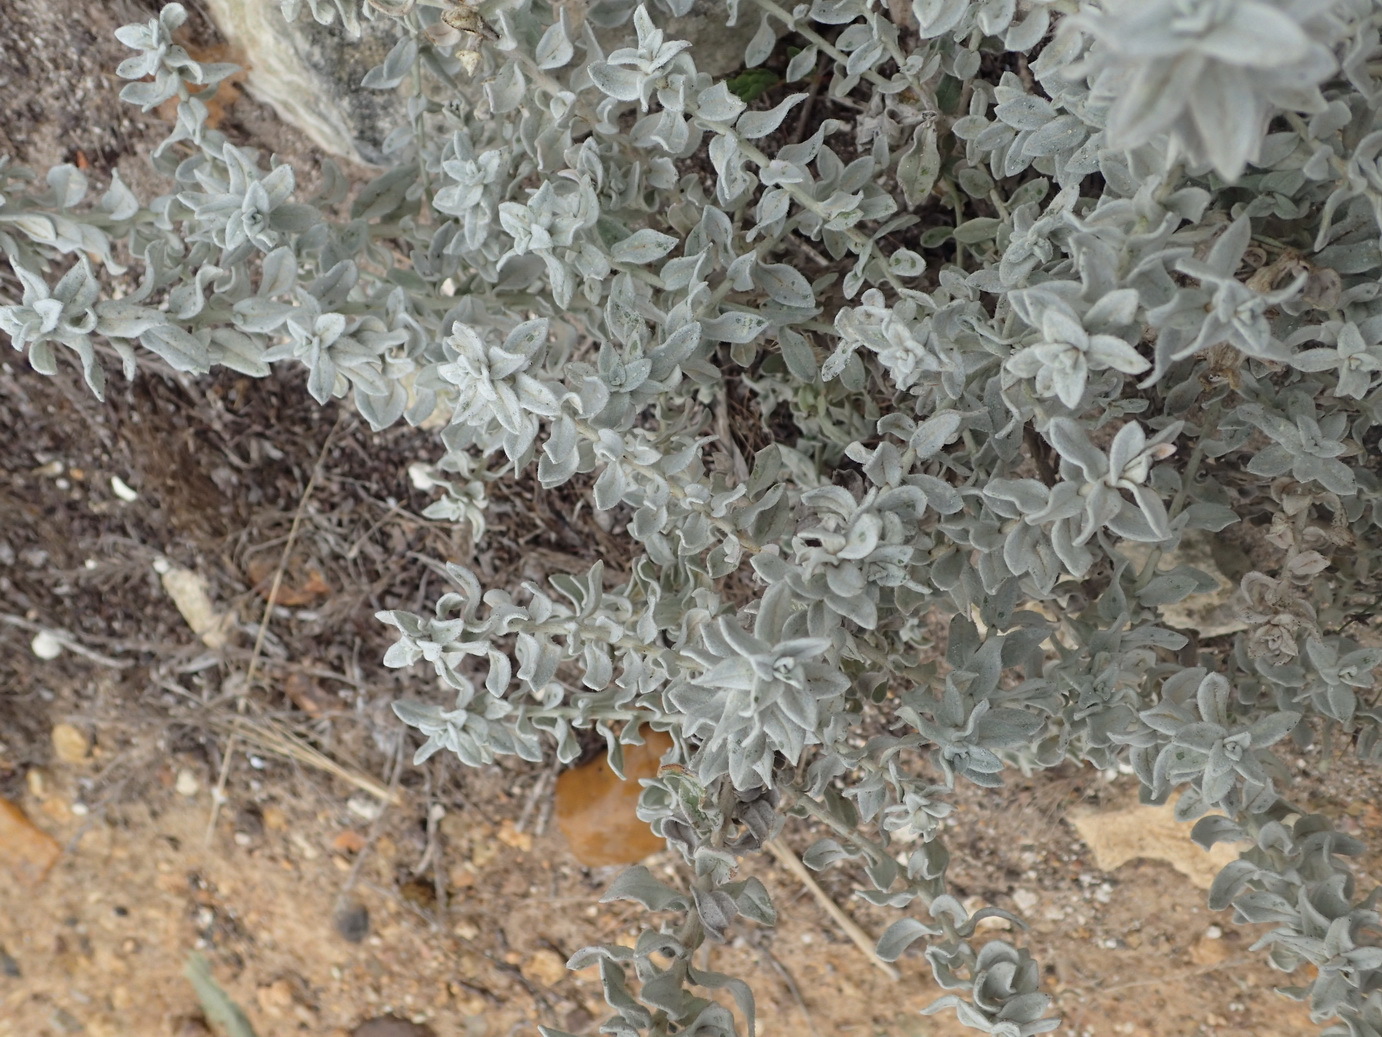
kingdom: Plantae
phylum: Tracheophyta
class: Magnoliopsida
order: Asterales
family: Asteraceae
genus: Helichrysum
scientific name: Helichrysum dasyanthum
